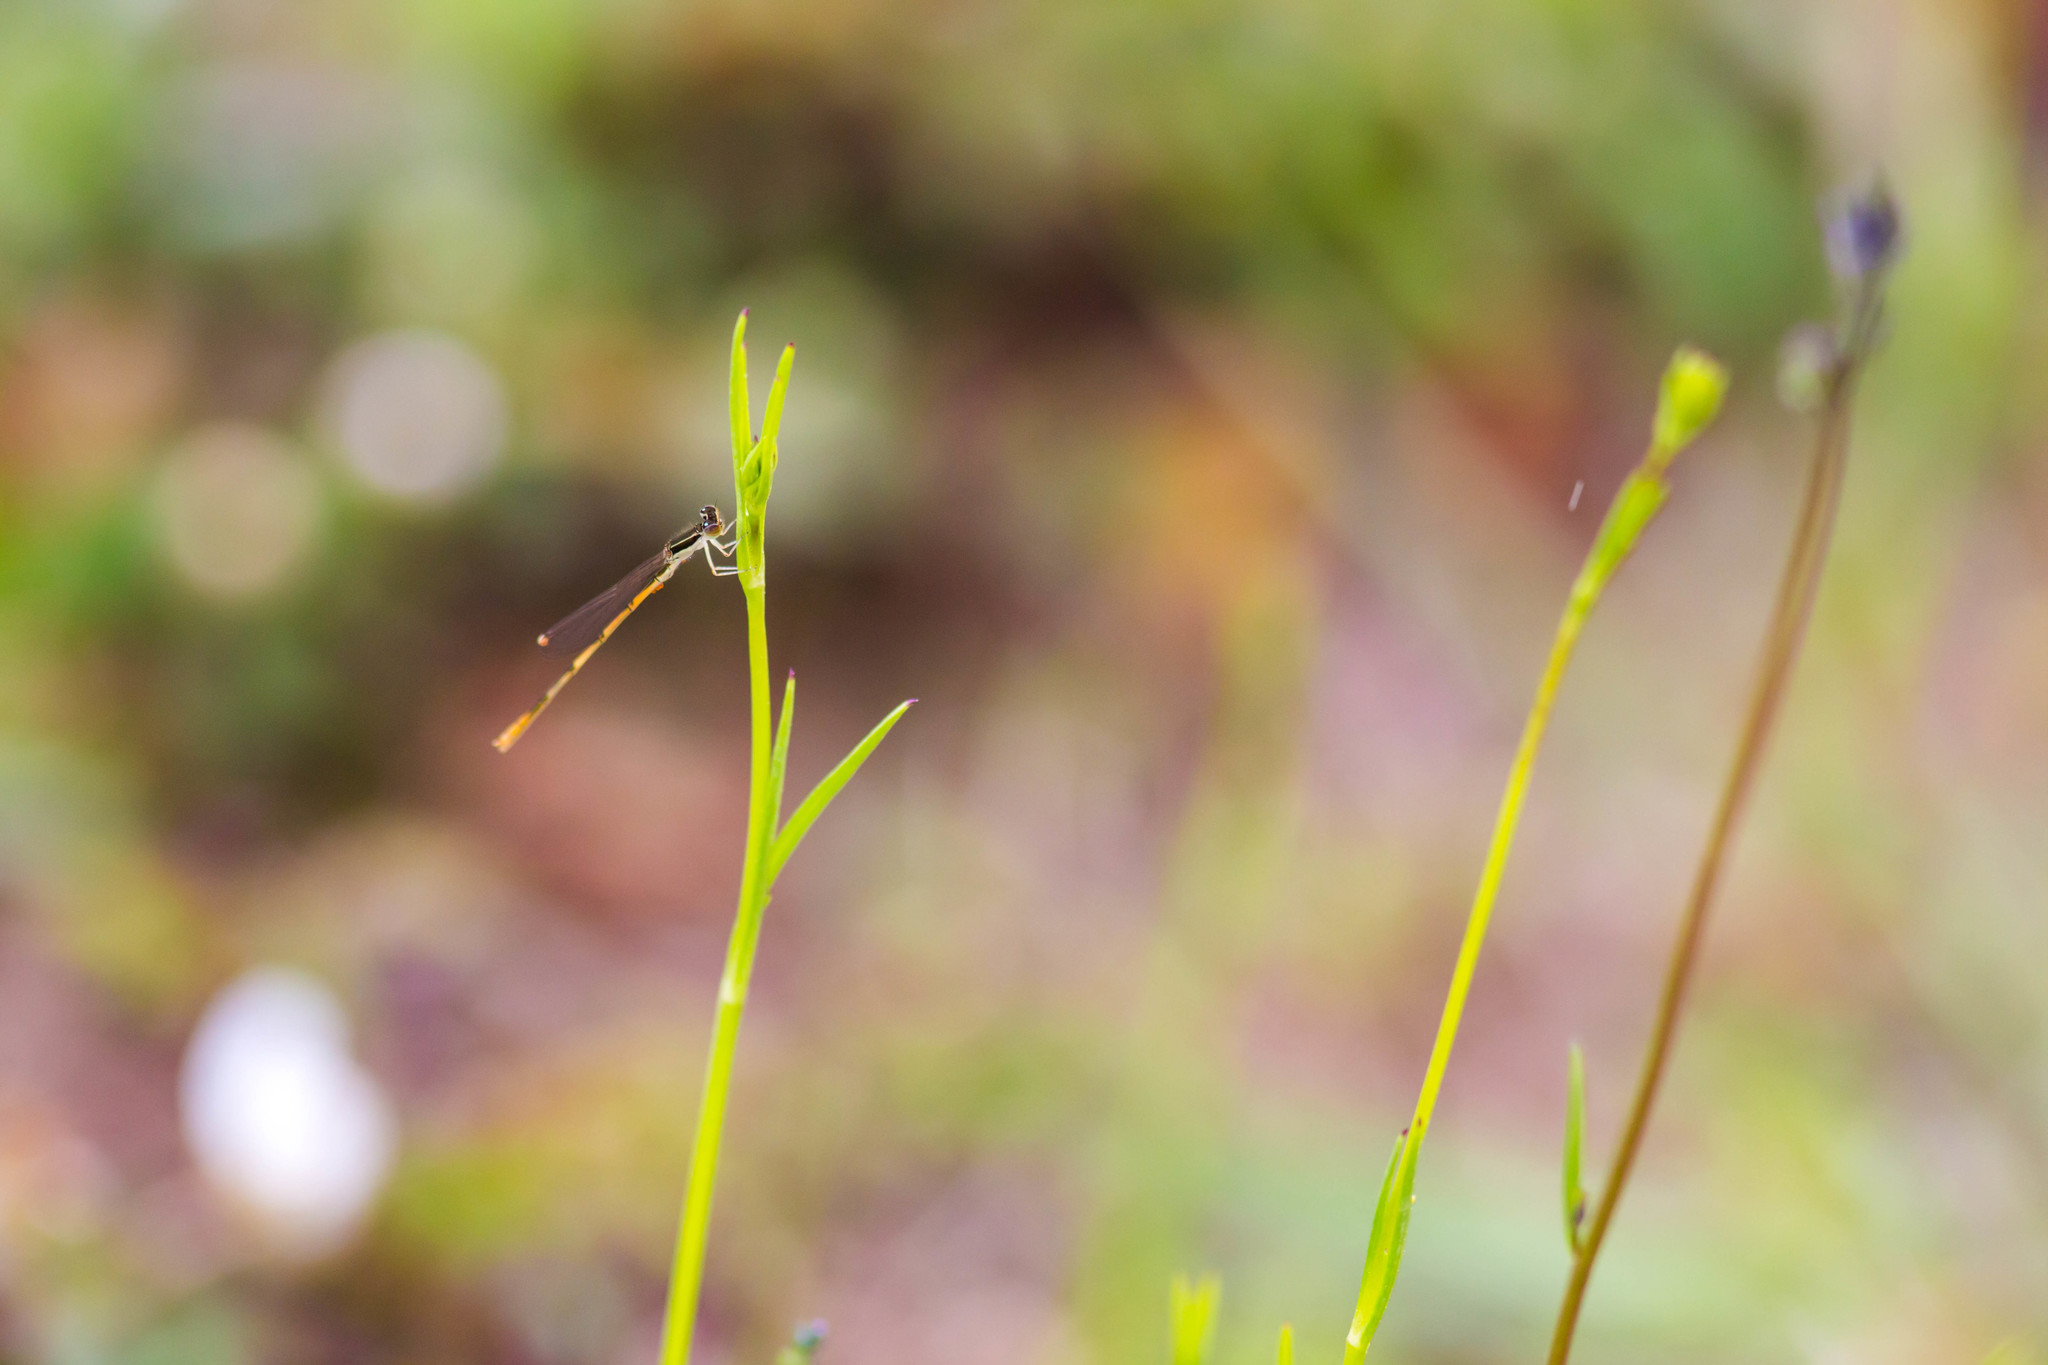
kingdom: Animalia
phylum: Arthropoda
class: Insecta
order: Odonata
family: Coenagrionidae
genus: Ischnura
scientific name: Ischnura hastata
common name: Citrine forktail
